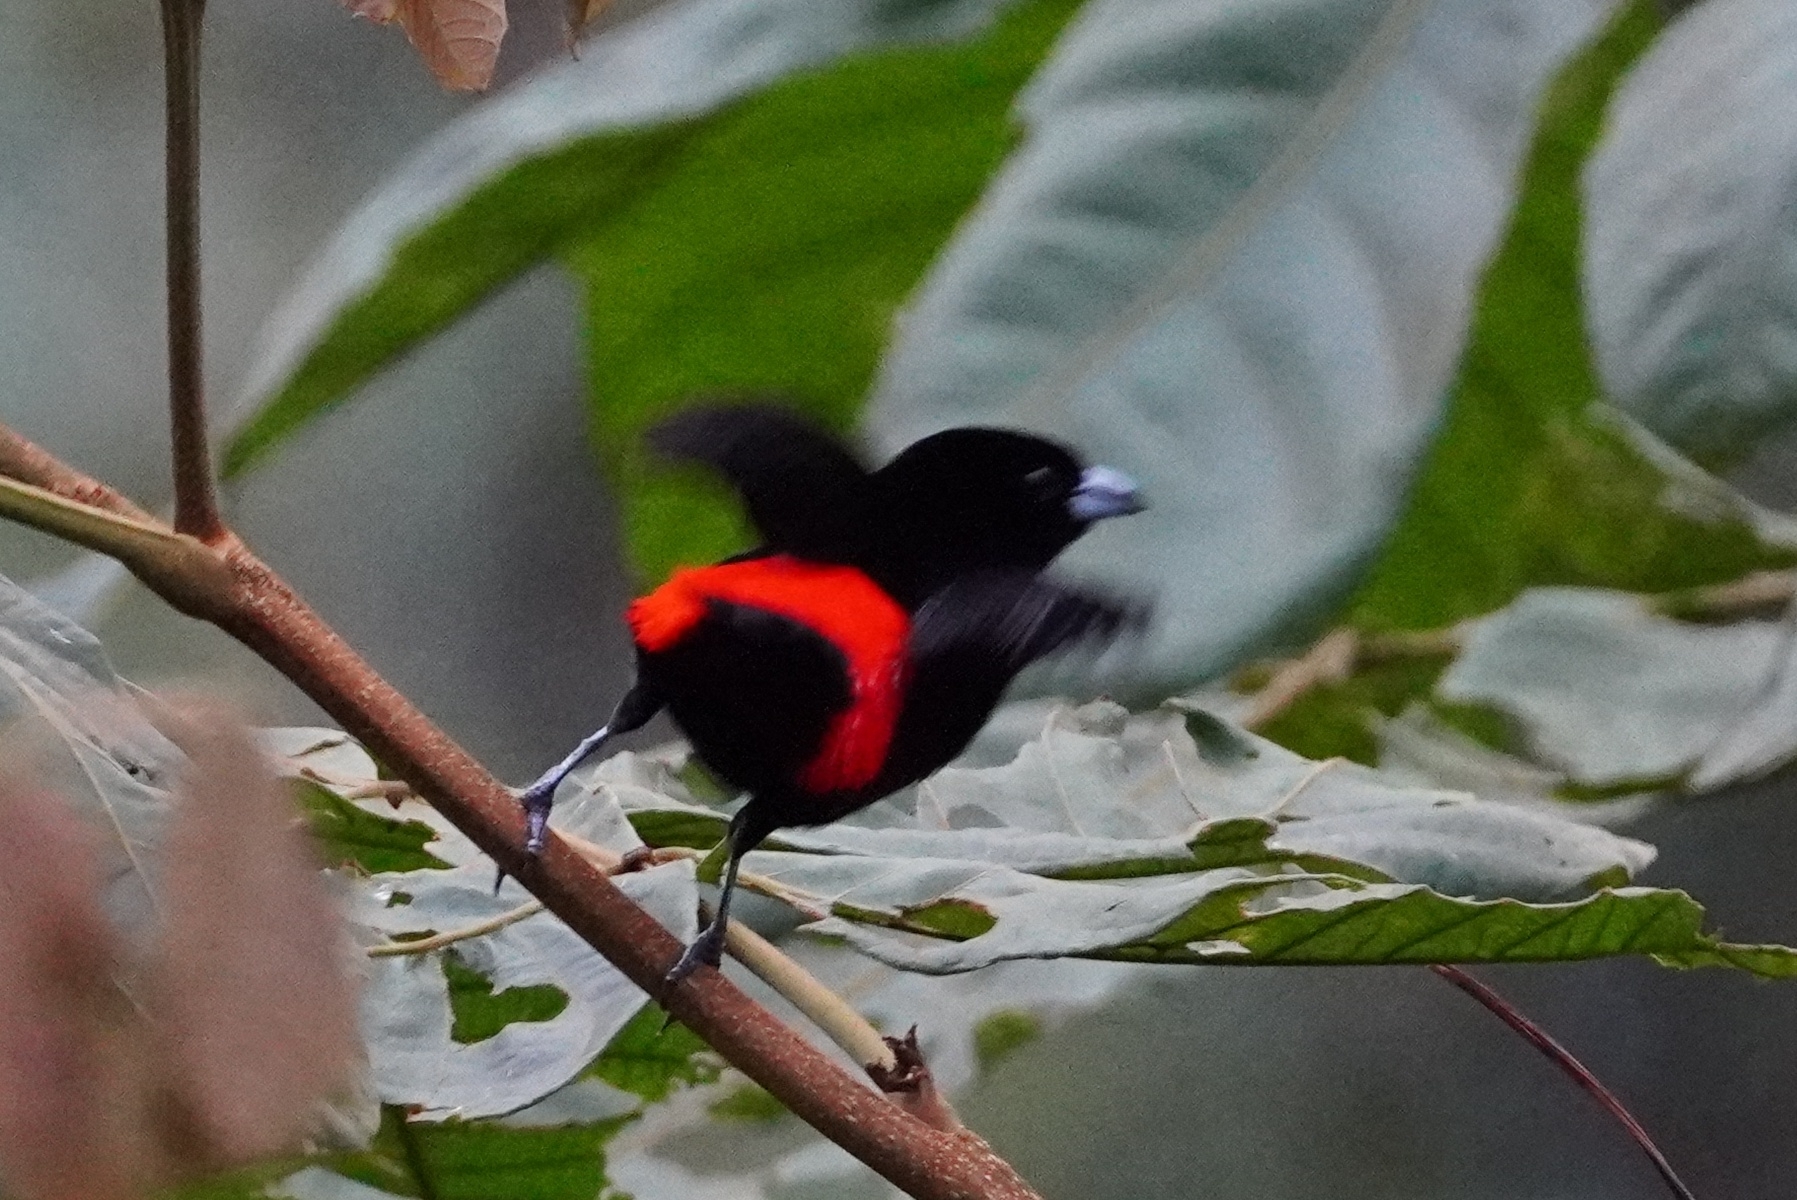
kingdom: Animalia
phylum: Chordata
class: Aves
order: Passeriformes
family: Thraupidae
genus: Ramphocelus
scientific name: Ramphocelus passerinii
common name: Passerini's tanager
